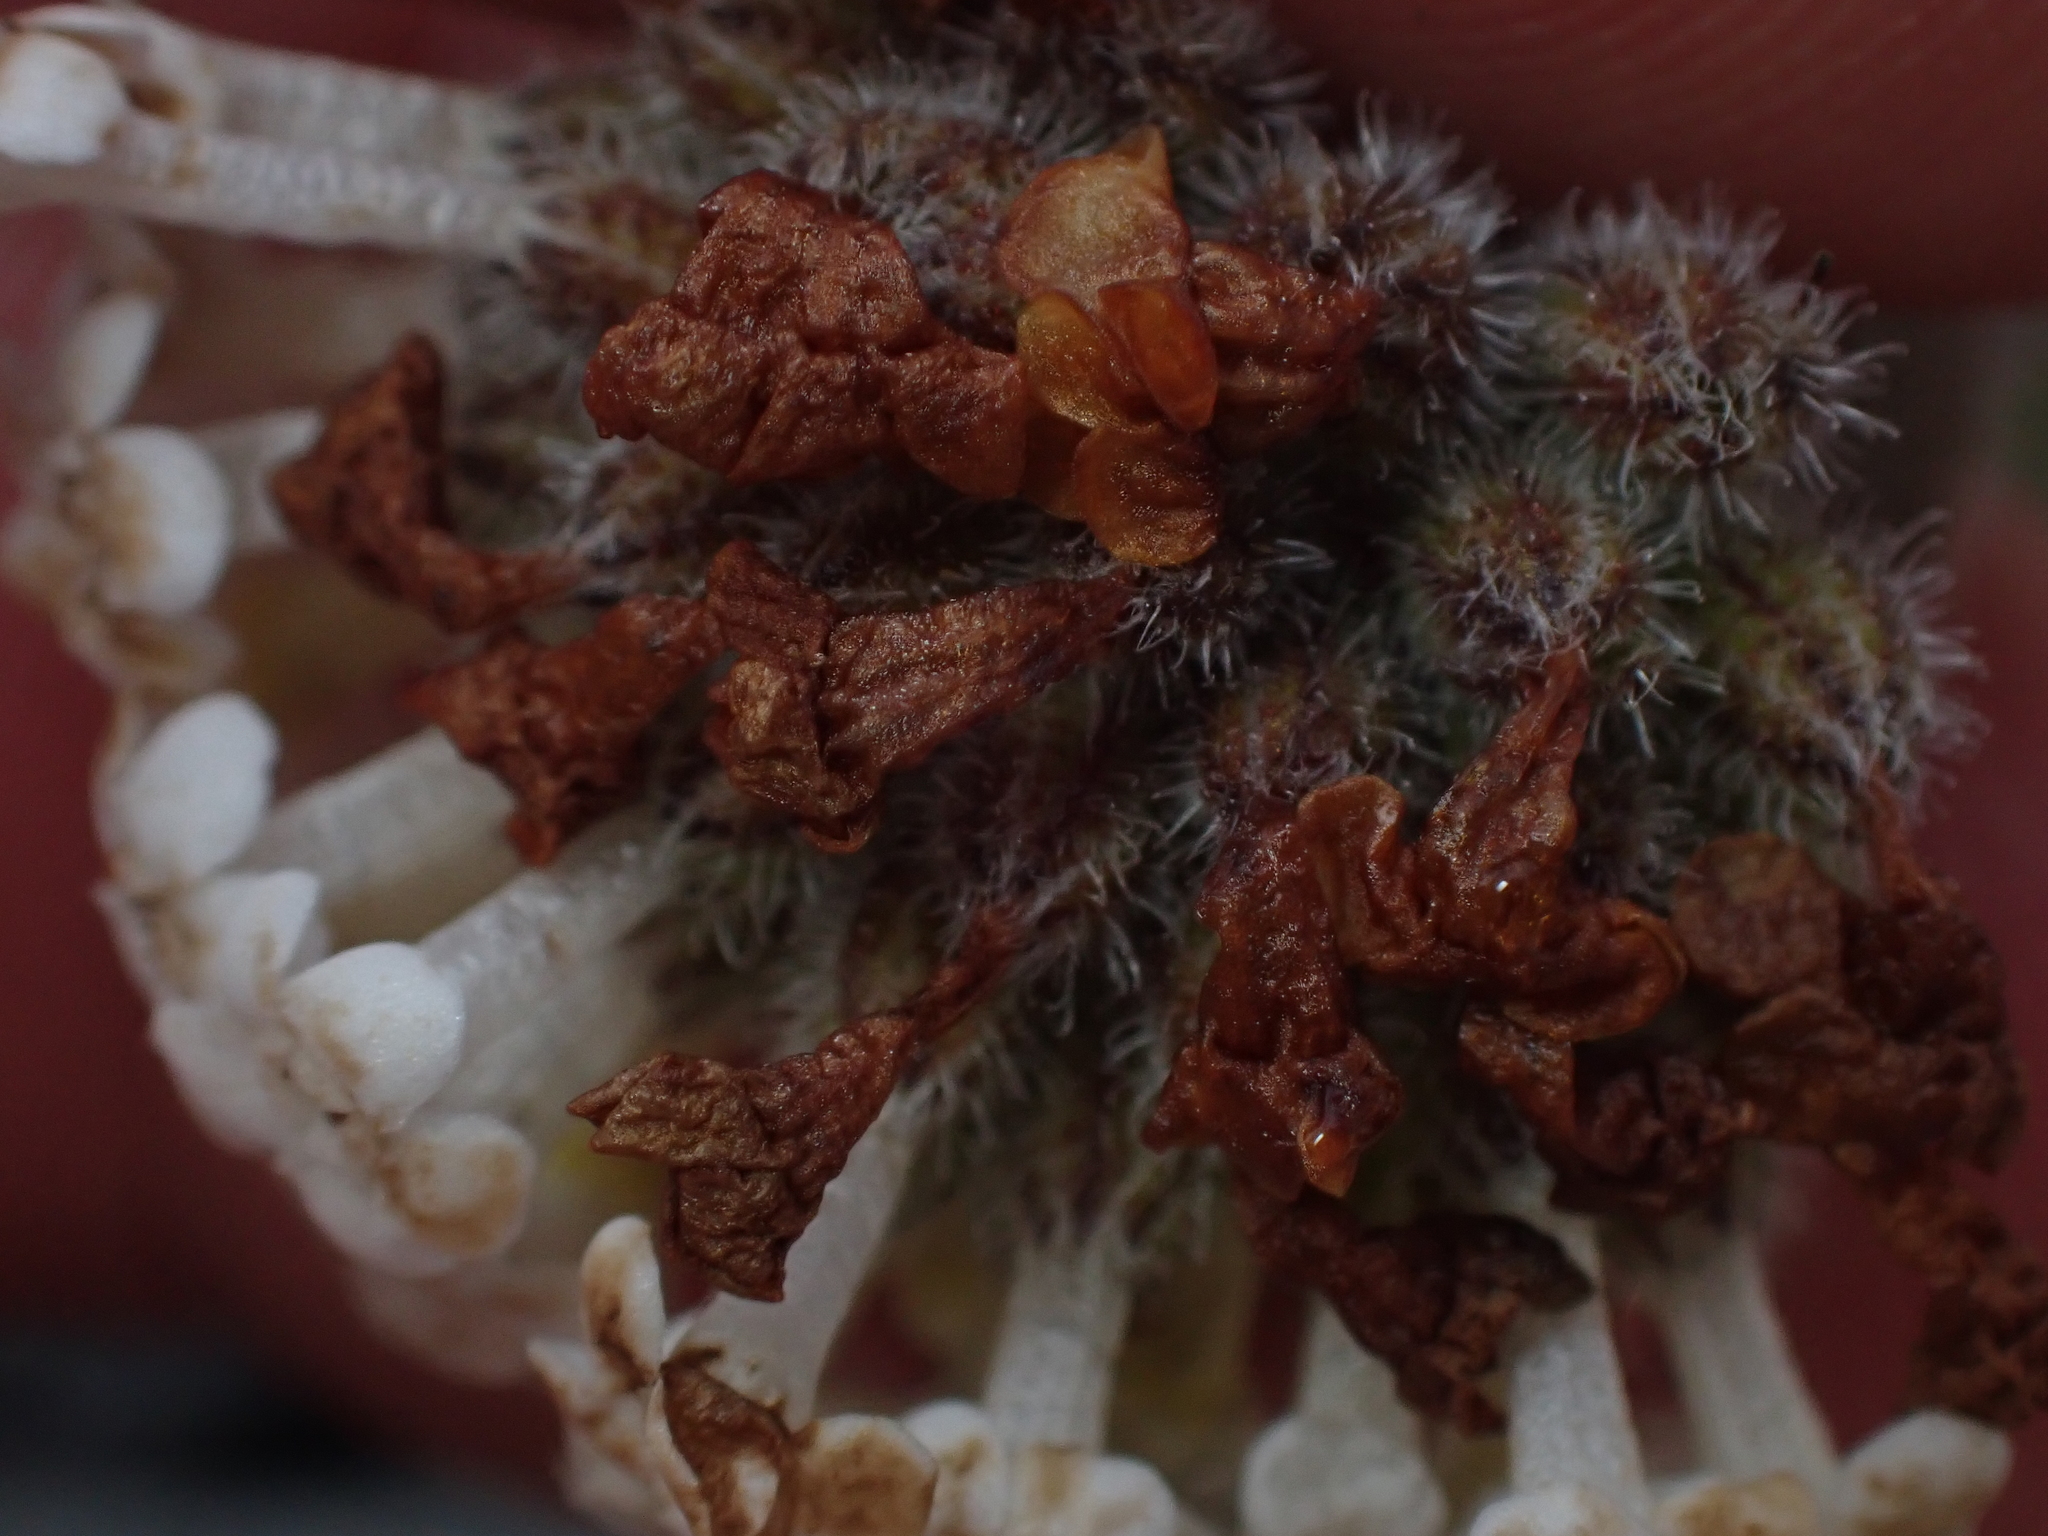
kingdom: Plantae
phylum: Tracheophyta
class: Magnoliopsida
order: Boraginales
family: Boraginaceae
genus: Myosotis
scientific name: Myosotis traversii
